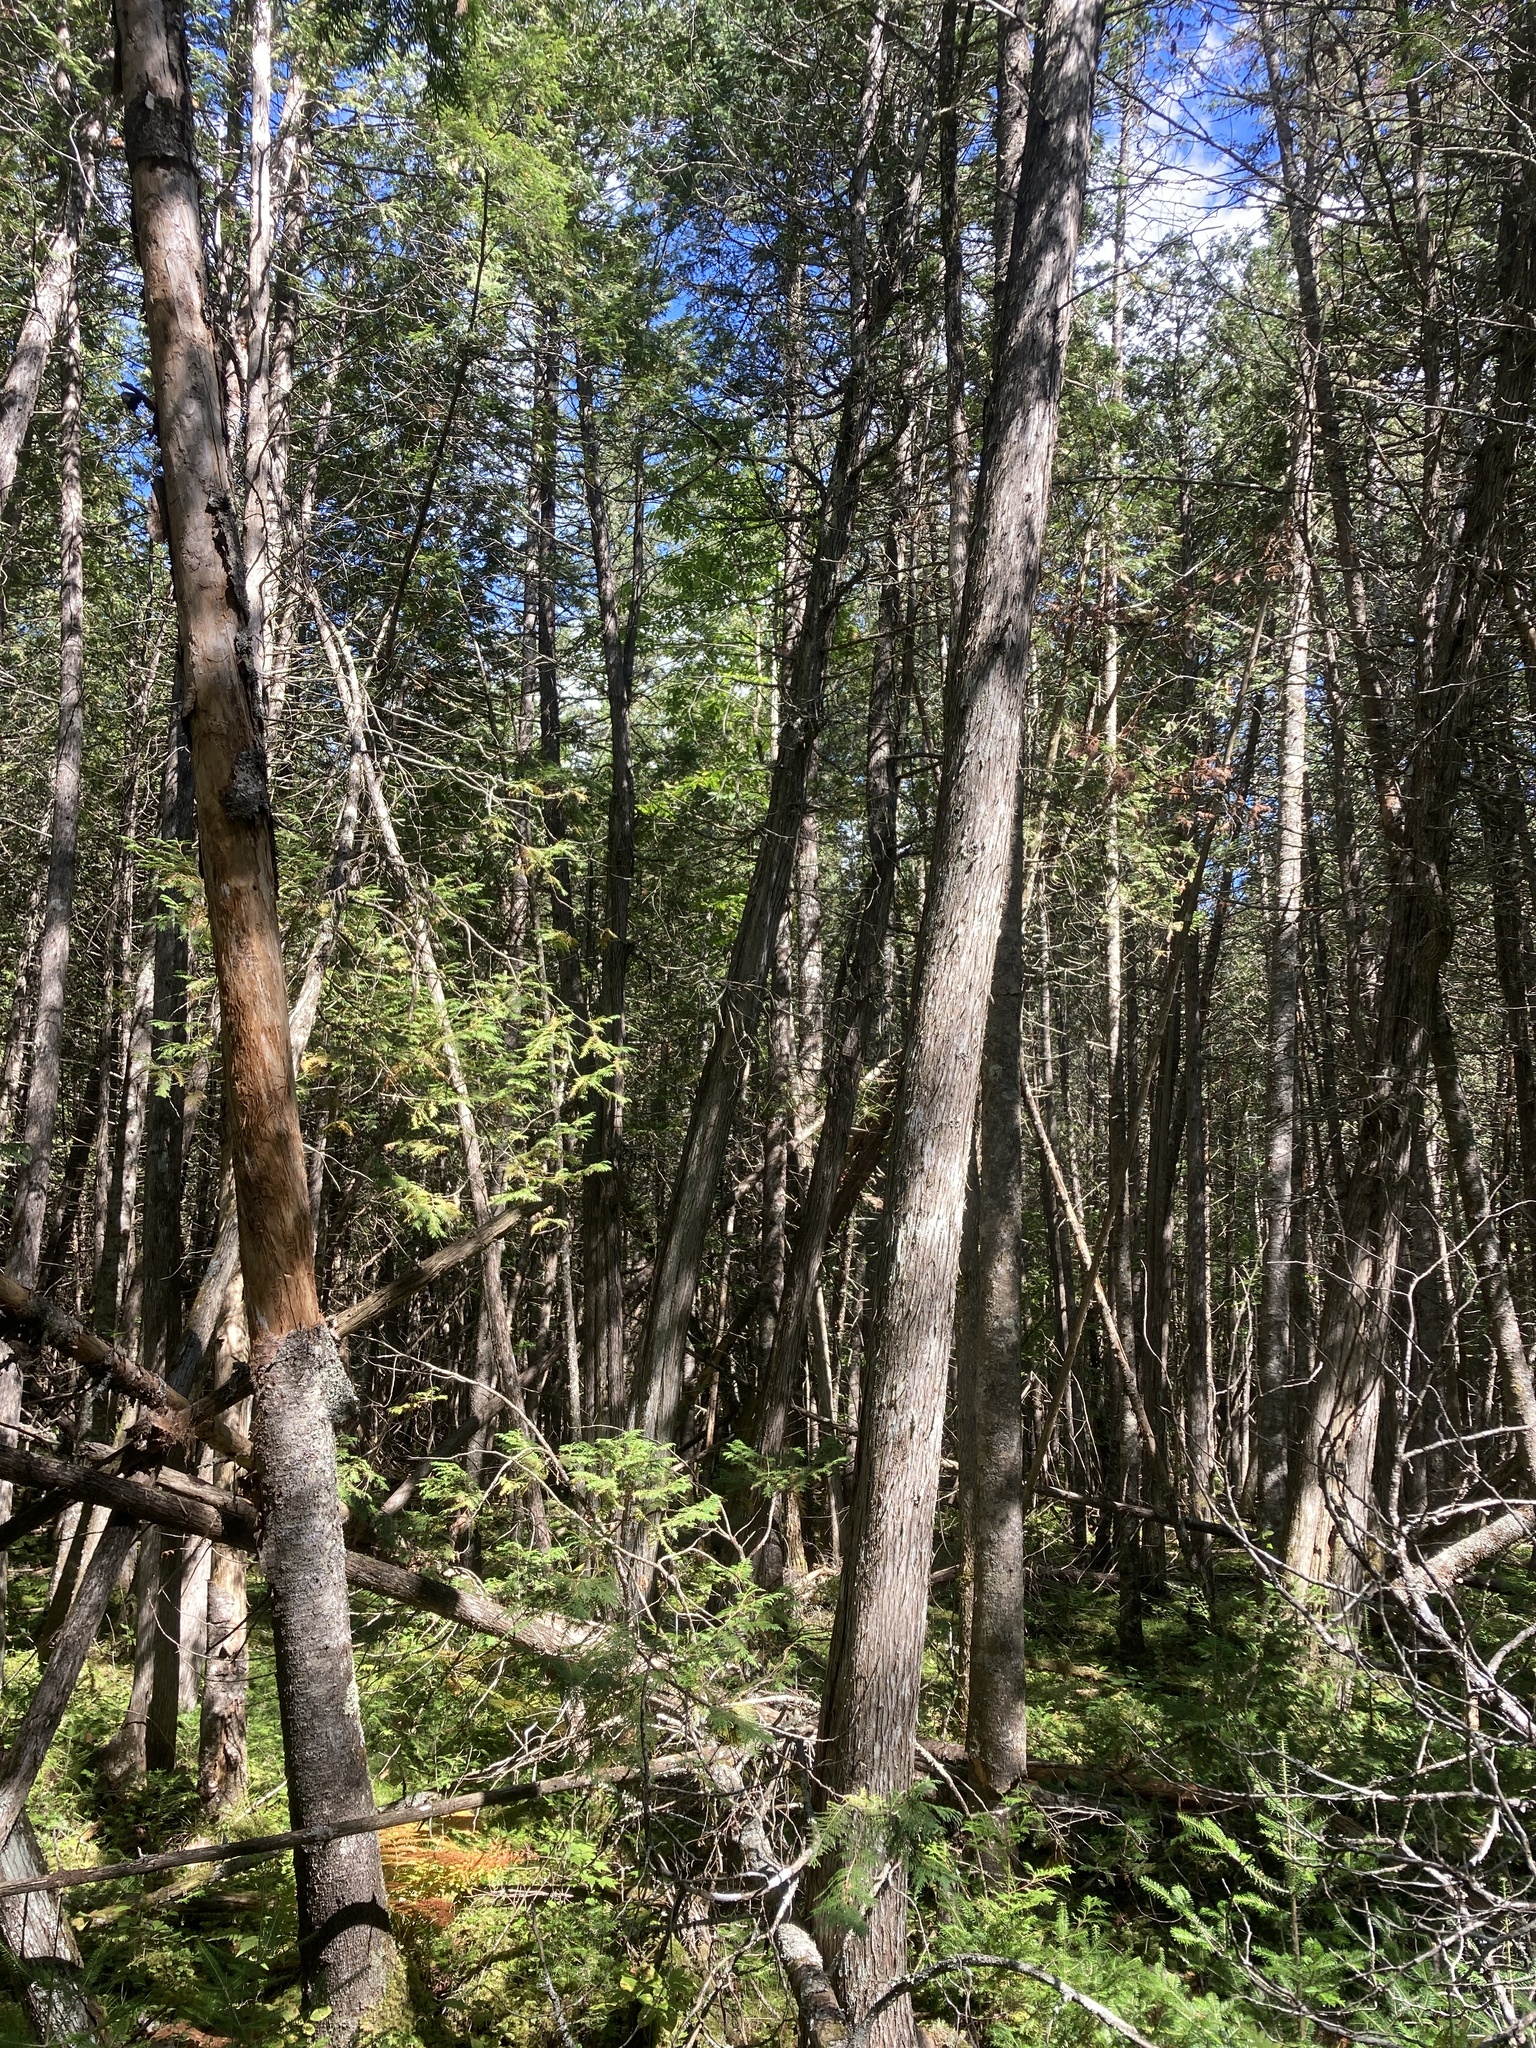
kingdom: Plantae
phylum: Tracheophyta
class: Pinopsida
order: Pinales
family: Cupressaceae
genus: Thuja
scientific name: Thuja occidentalis
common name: Northern white-cedar
